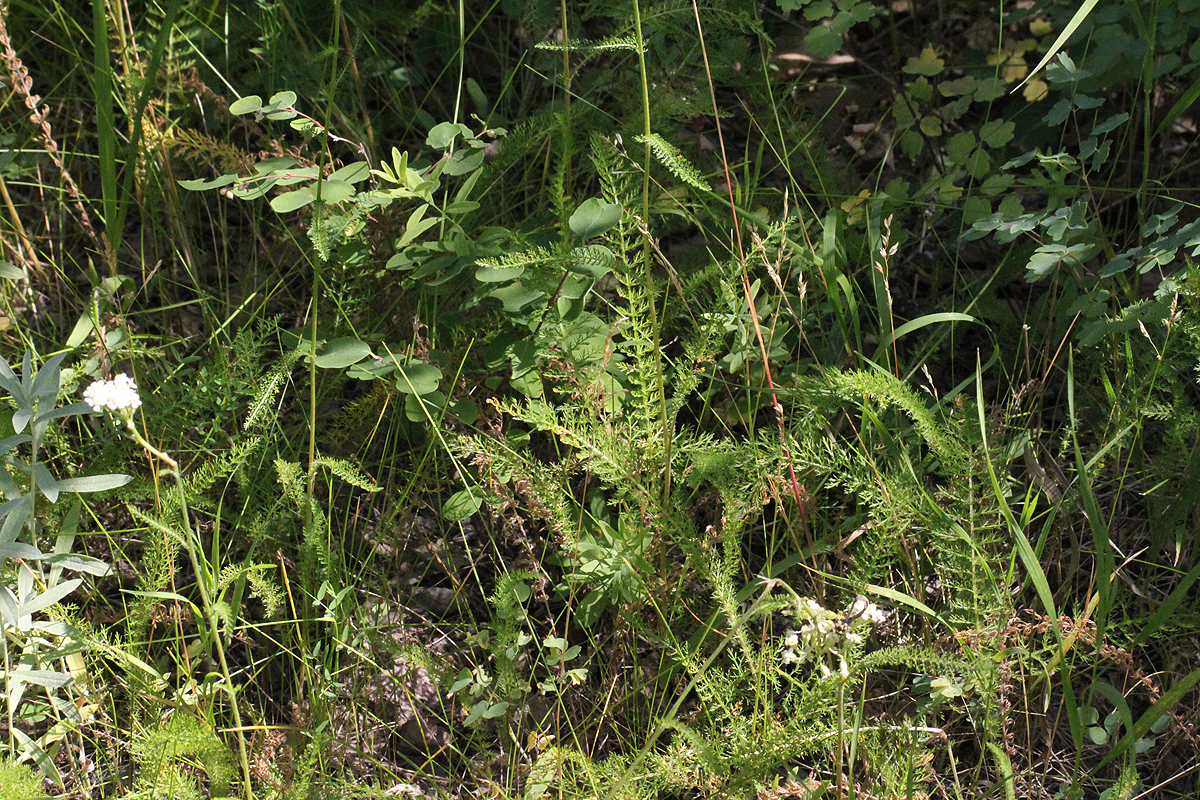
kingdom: Plantae
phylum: Tracheophyta
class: Magnoliopsida
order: Asterales
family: Asteraceae
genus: Achillea
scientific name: Achillea millefolium
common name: Yarrow
